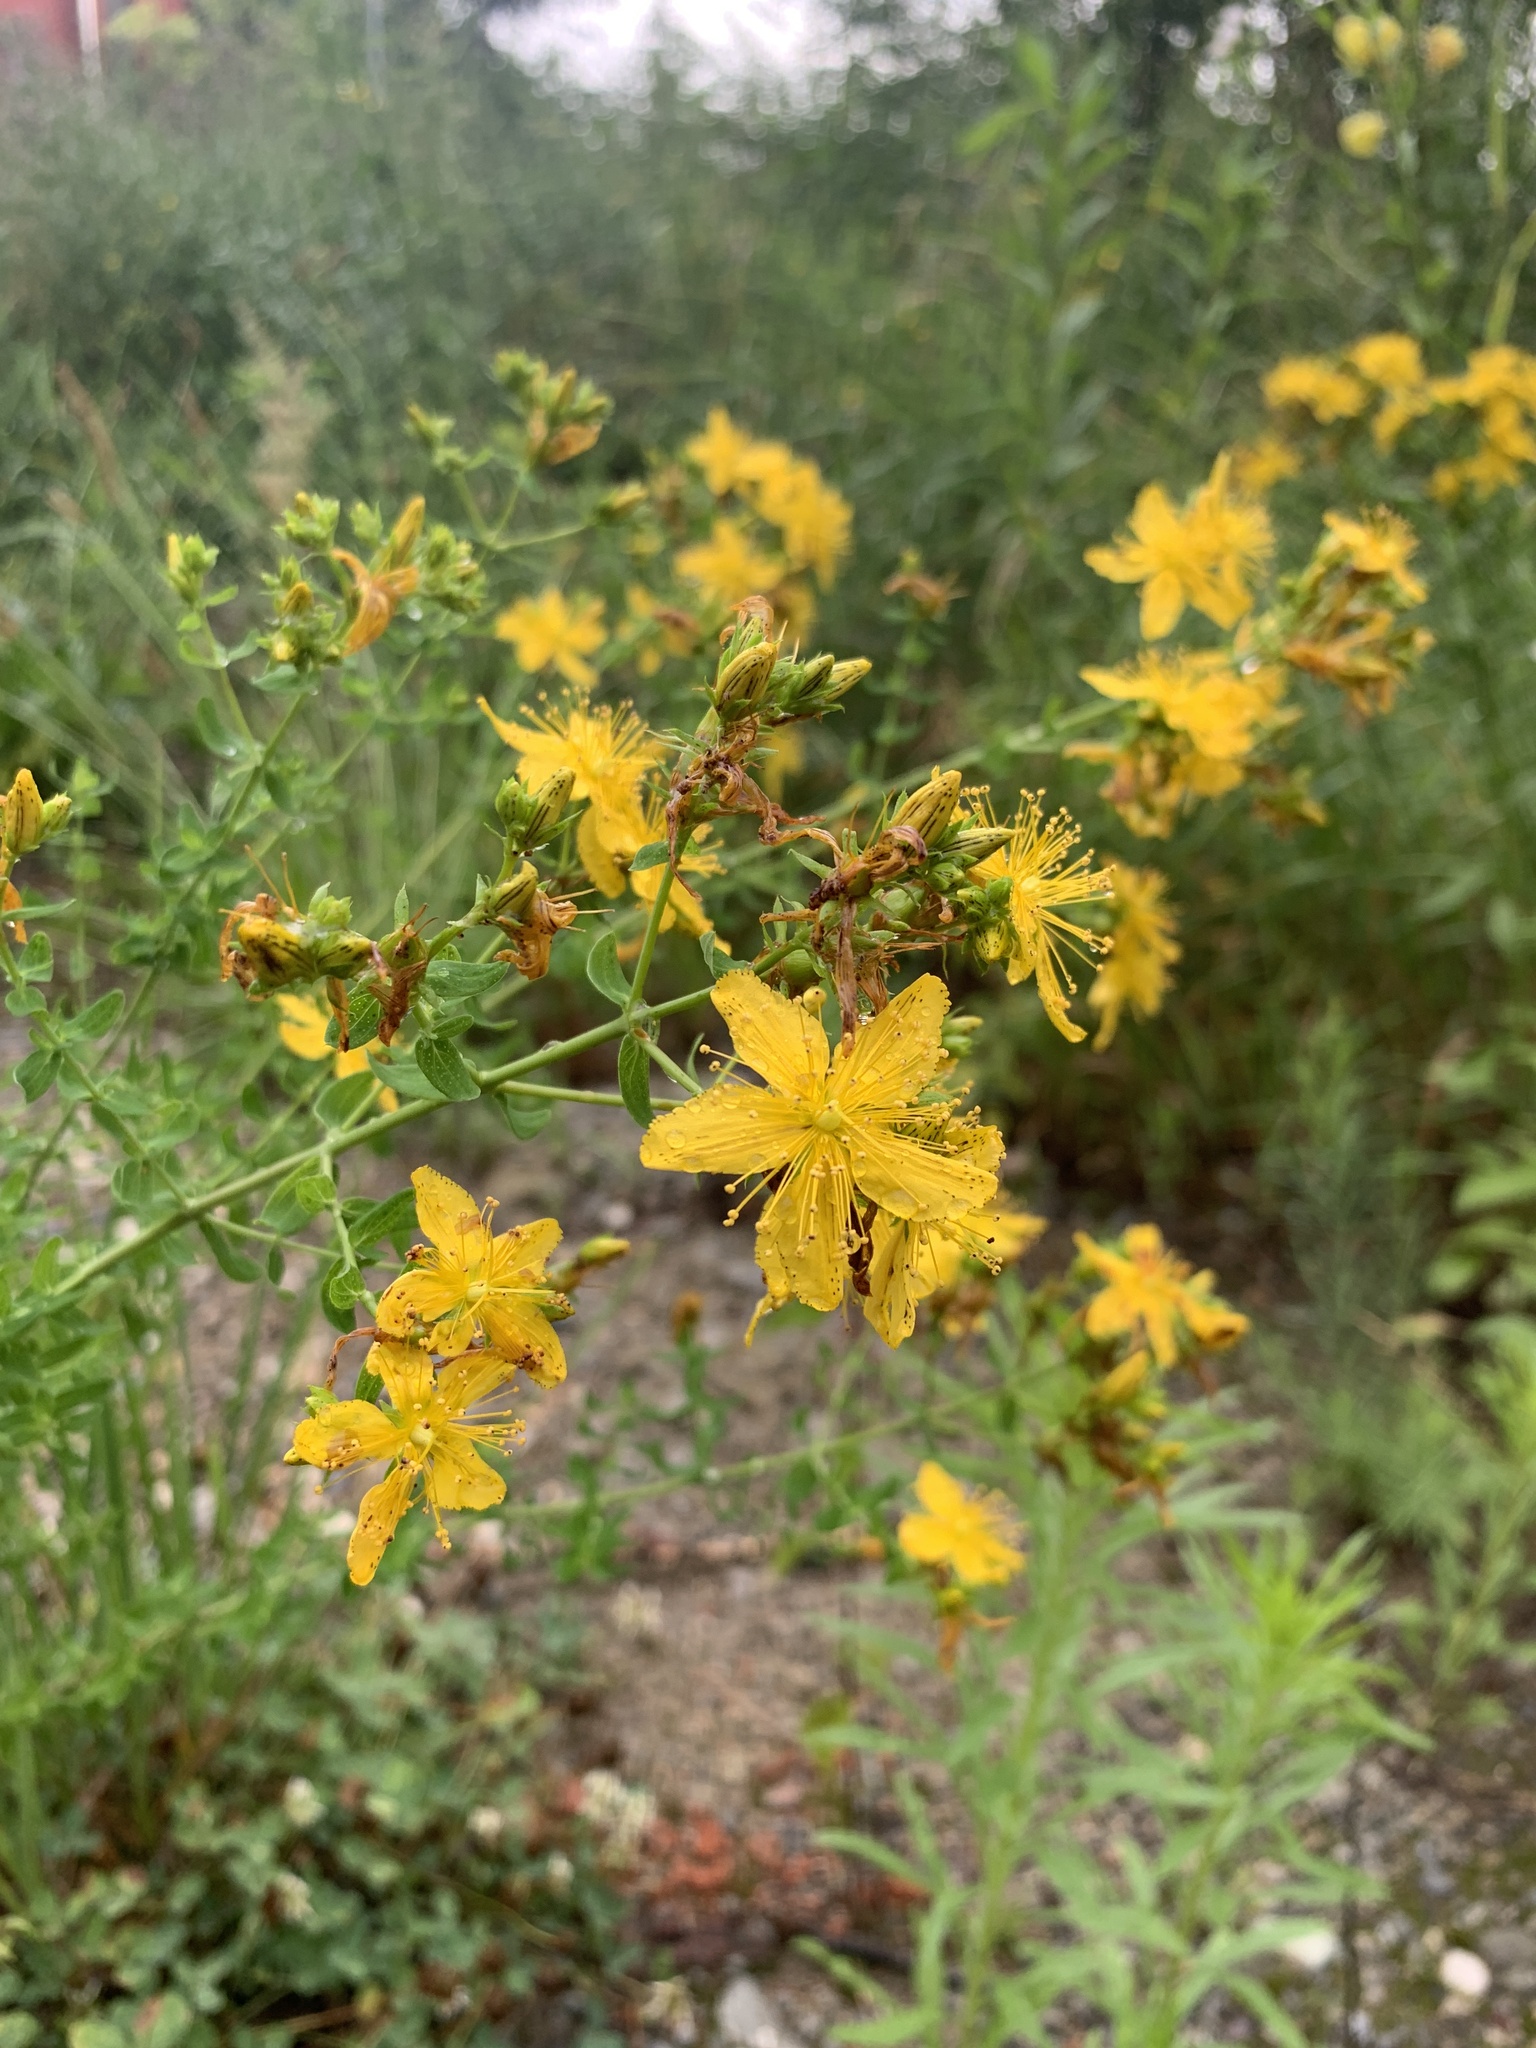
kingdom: Plantae
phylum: Tracheophyta
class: Magnoliopsida
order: Malpighiales
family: Hypericaceae
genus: Hypericum
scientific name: Hypericum perforatum
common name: Common st. johnswort
